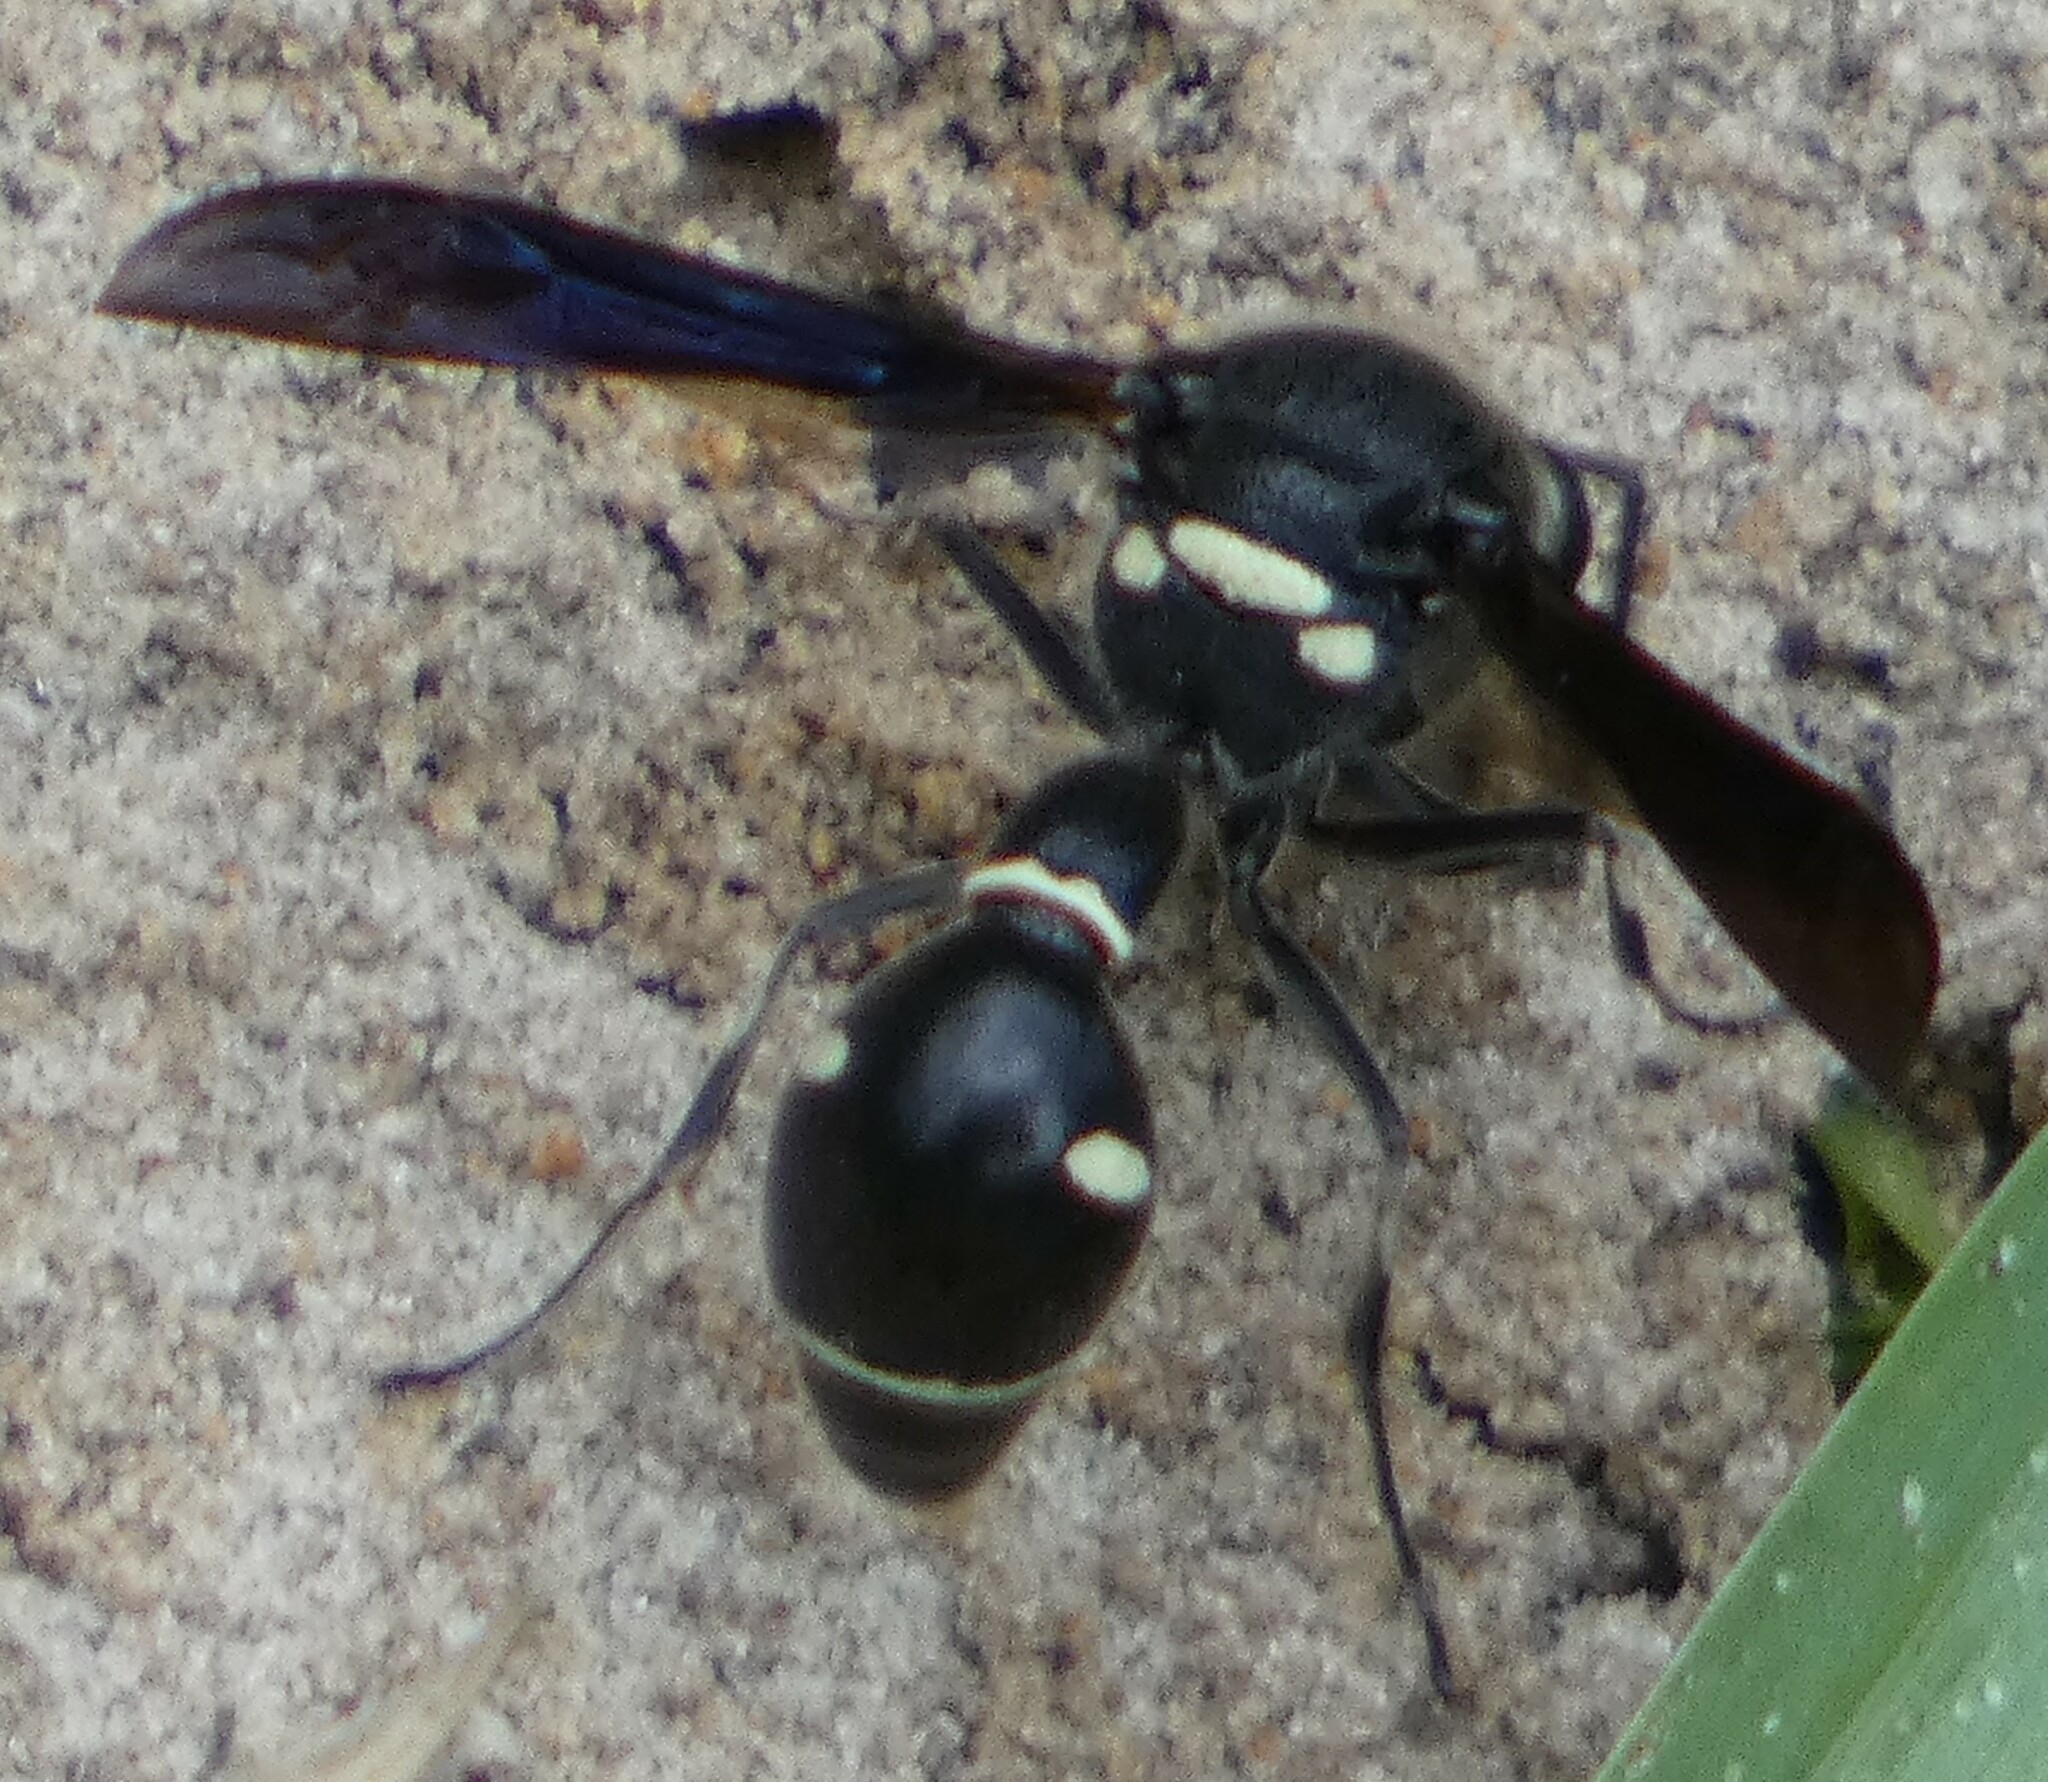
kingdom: Animalia
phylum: Arthropoda
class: Insecta
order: Hymenoptera
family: Vespidae
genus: Eumenes
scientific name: Eumenes fraternus
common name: Fraternal potter wasp
